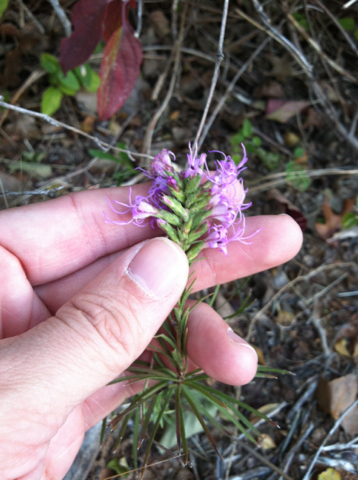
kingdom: Plantae
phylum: Tracheophyta
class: Magnoliopsida
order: Asterales
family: Asteraceae
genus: Liatris
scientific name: Liatris punctata
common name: Dotted gayfeather
